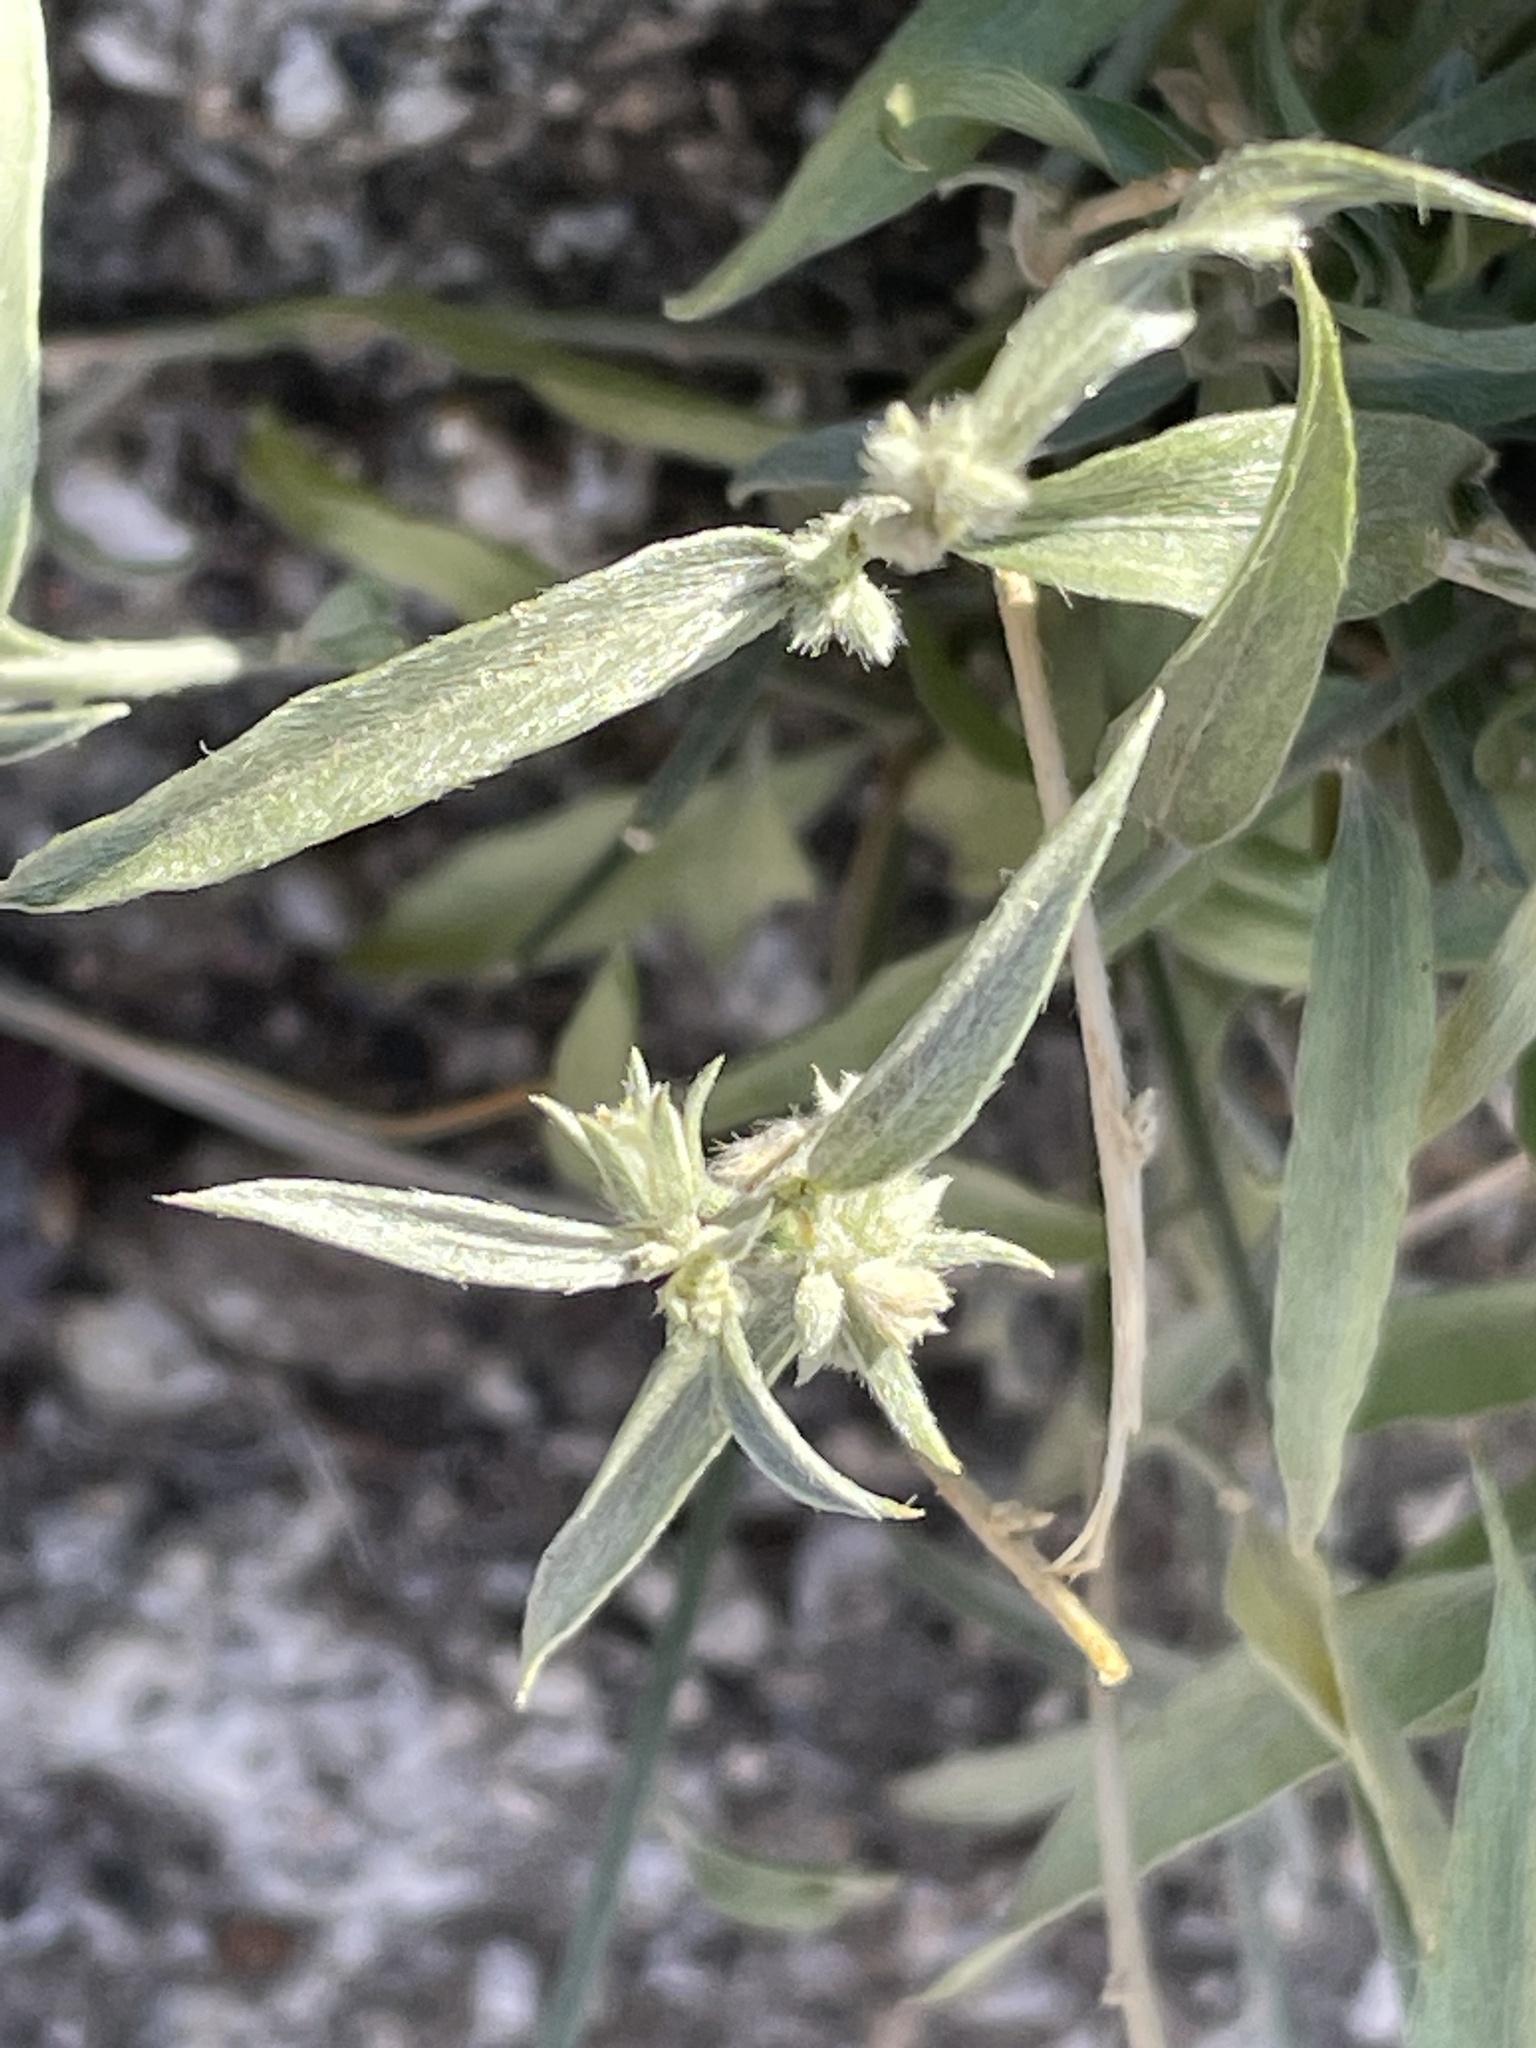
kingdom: Plantae
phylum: Tracheophyta
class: Magnoliopsida
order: Malpighiales
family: Euphorbiaceae
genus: Ditaxis
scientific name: Ditaxis lanceolata
